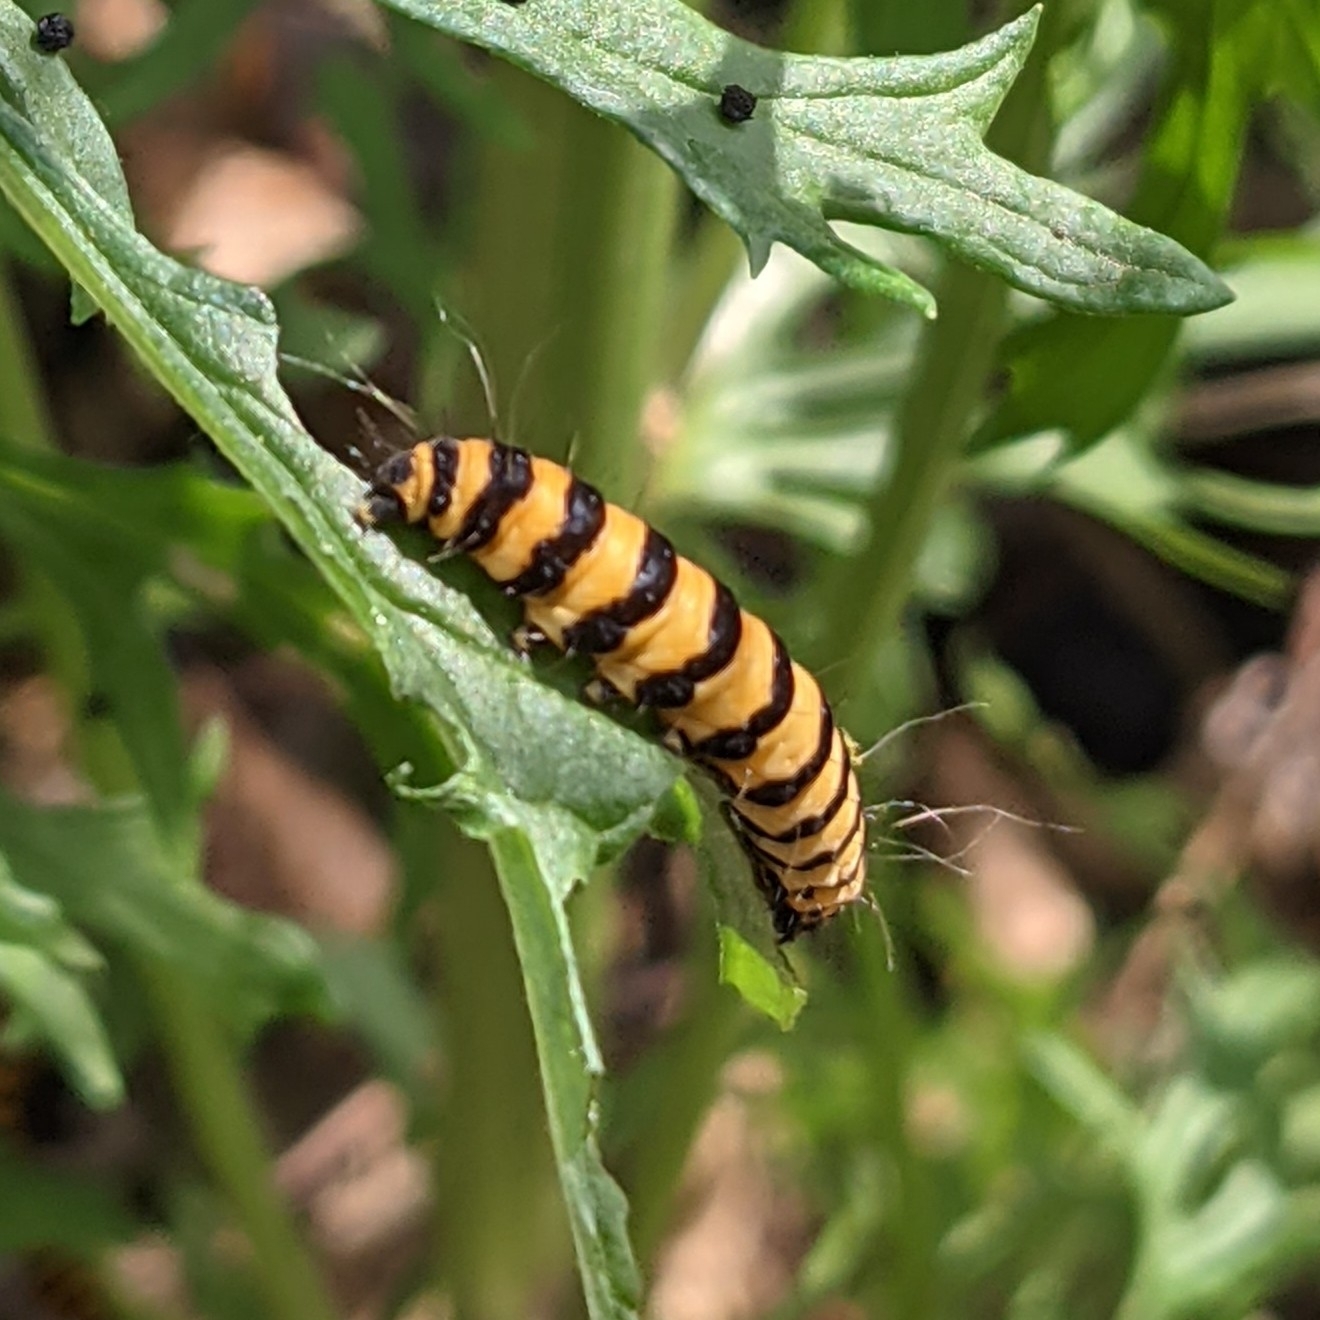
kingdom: Animalia
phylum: Arthropoda
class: Insecta
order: Lepidoptera
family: Erebidae
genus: Tyria
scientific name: Tyria jacobaeae
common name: Cinnabar
